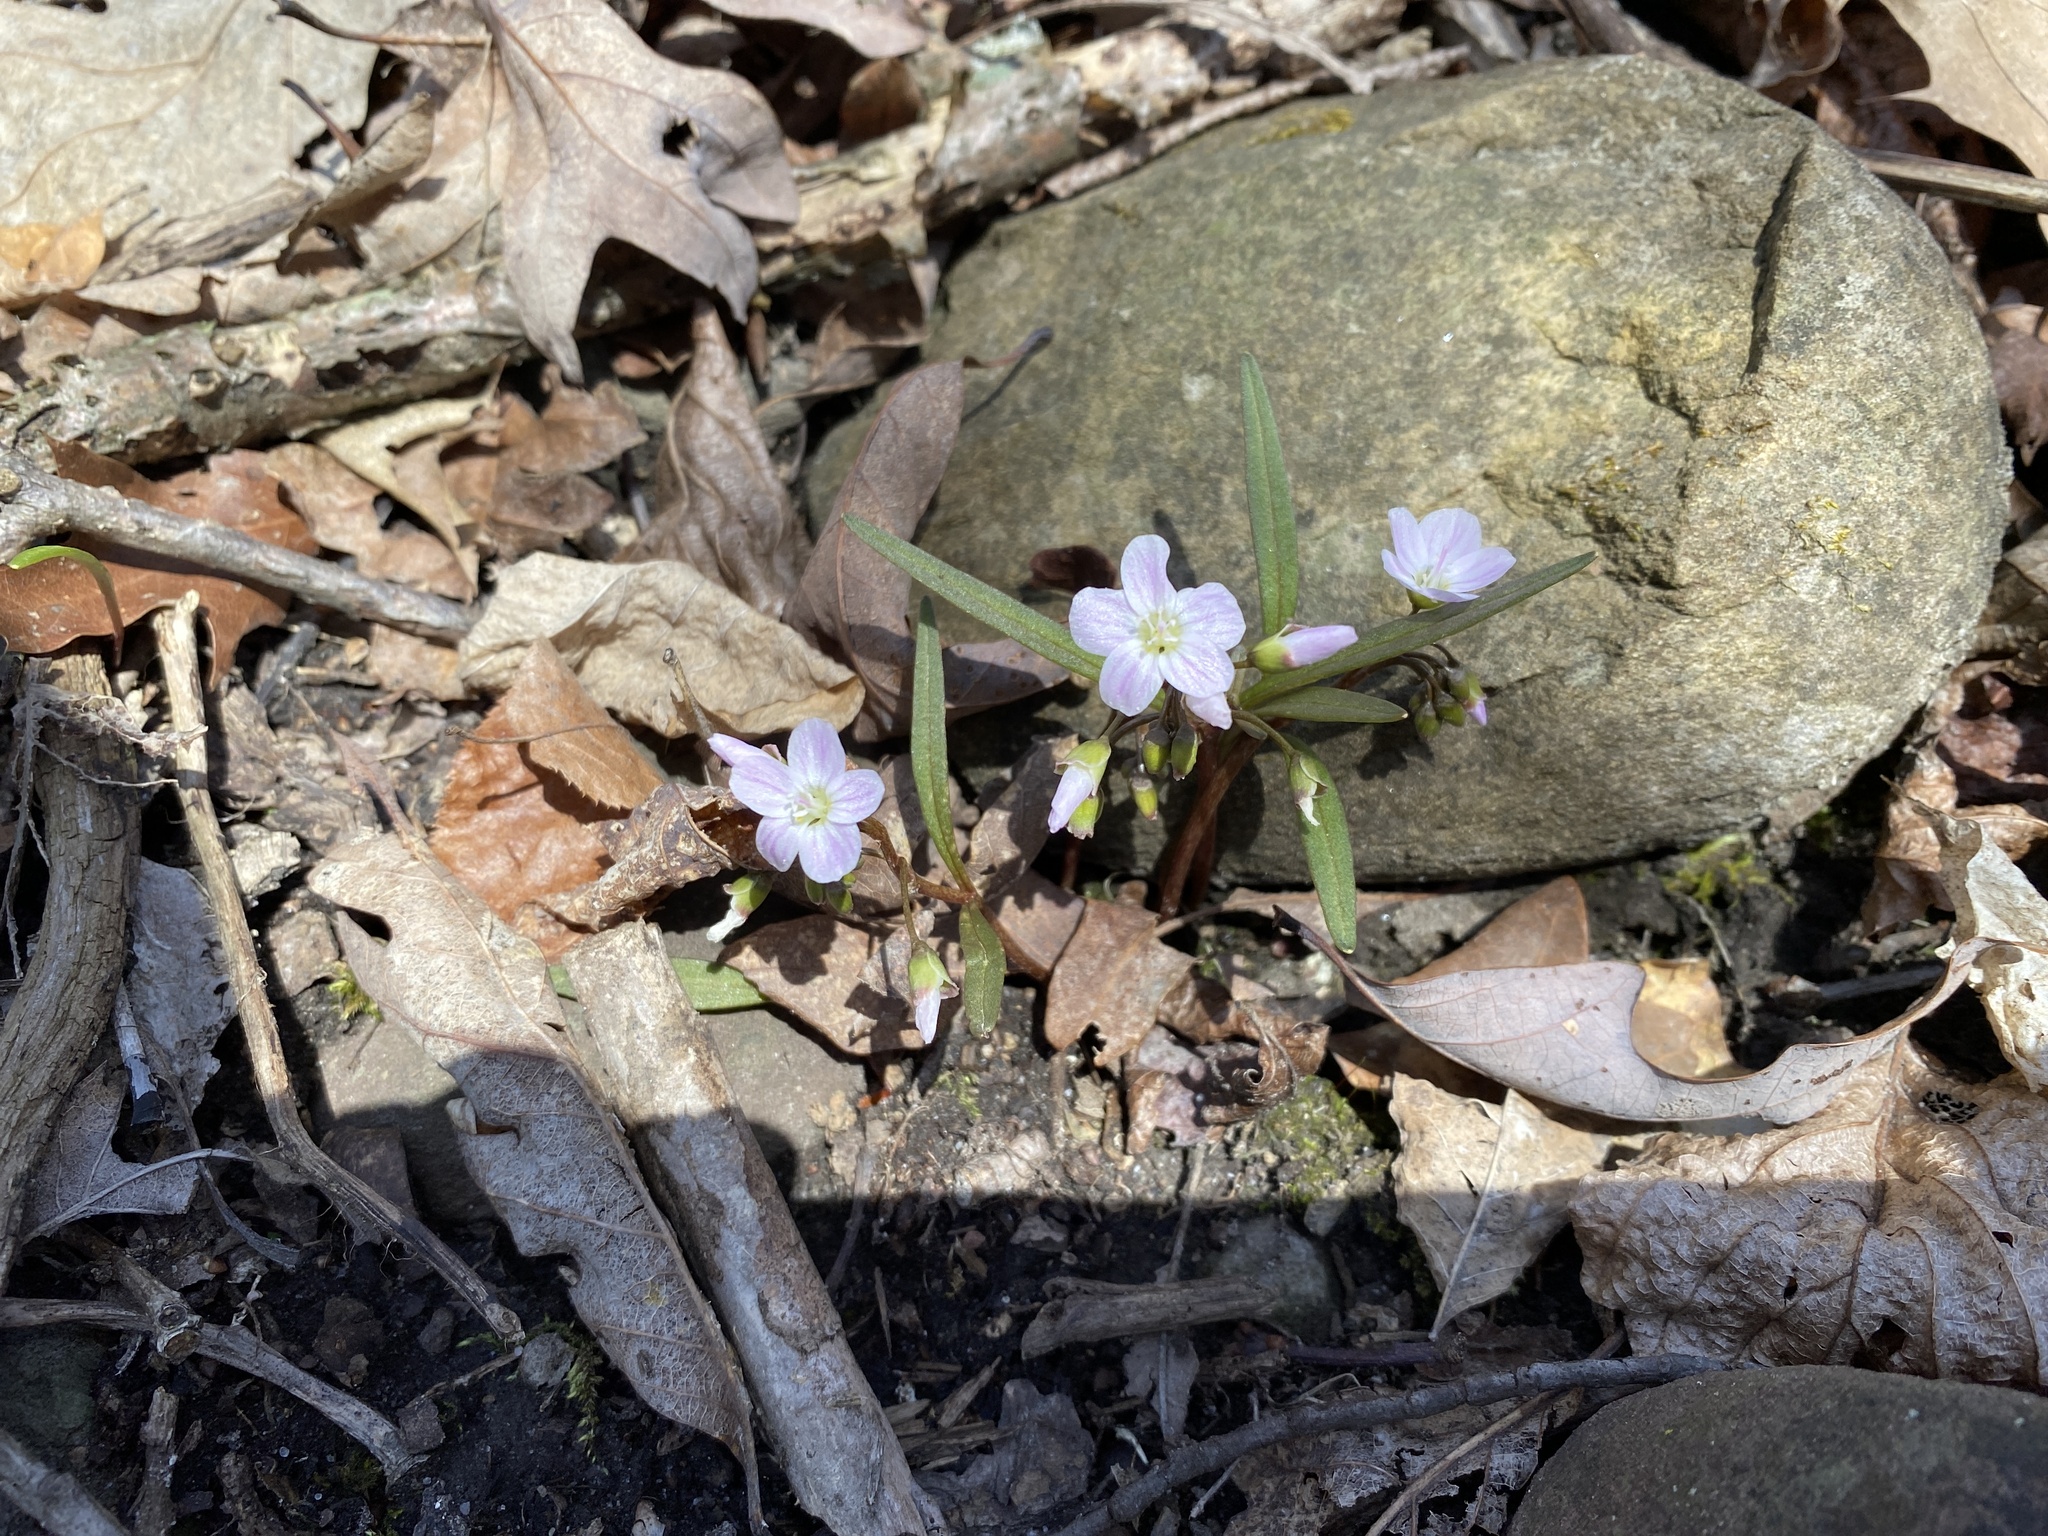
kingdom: Plantae
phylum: Tracheophyta
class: Magnoliopsida
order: Caryophyllales
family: Montiaceae
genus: Claytonia
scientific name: Claytonia virginica
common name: Virginia springbeauty
